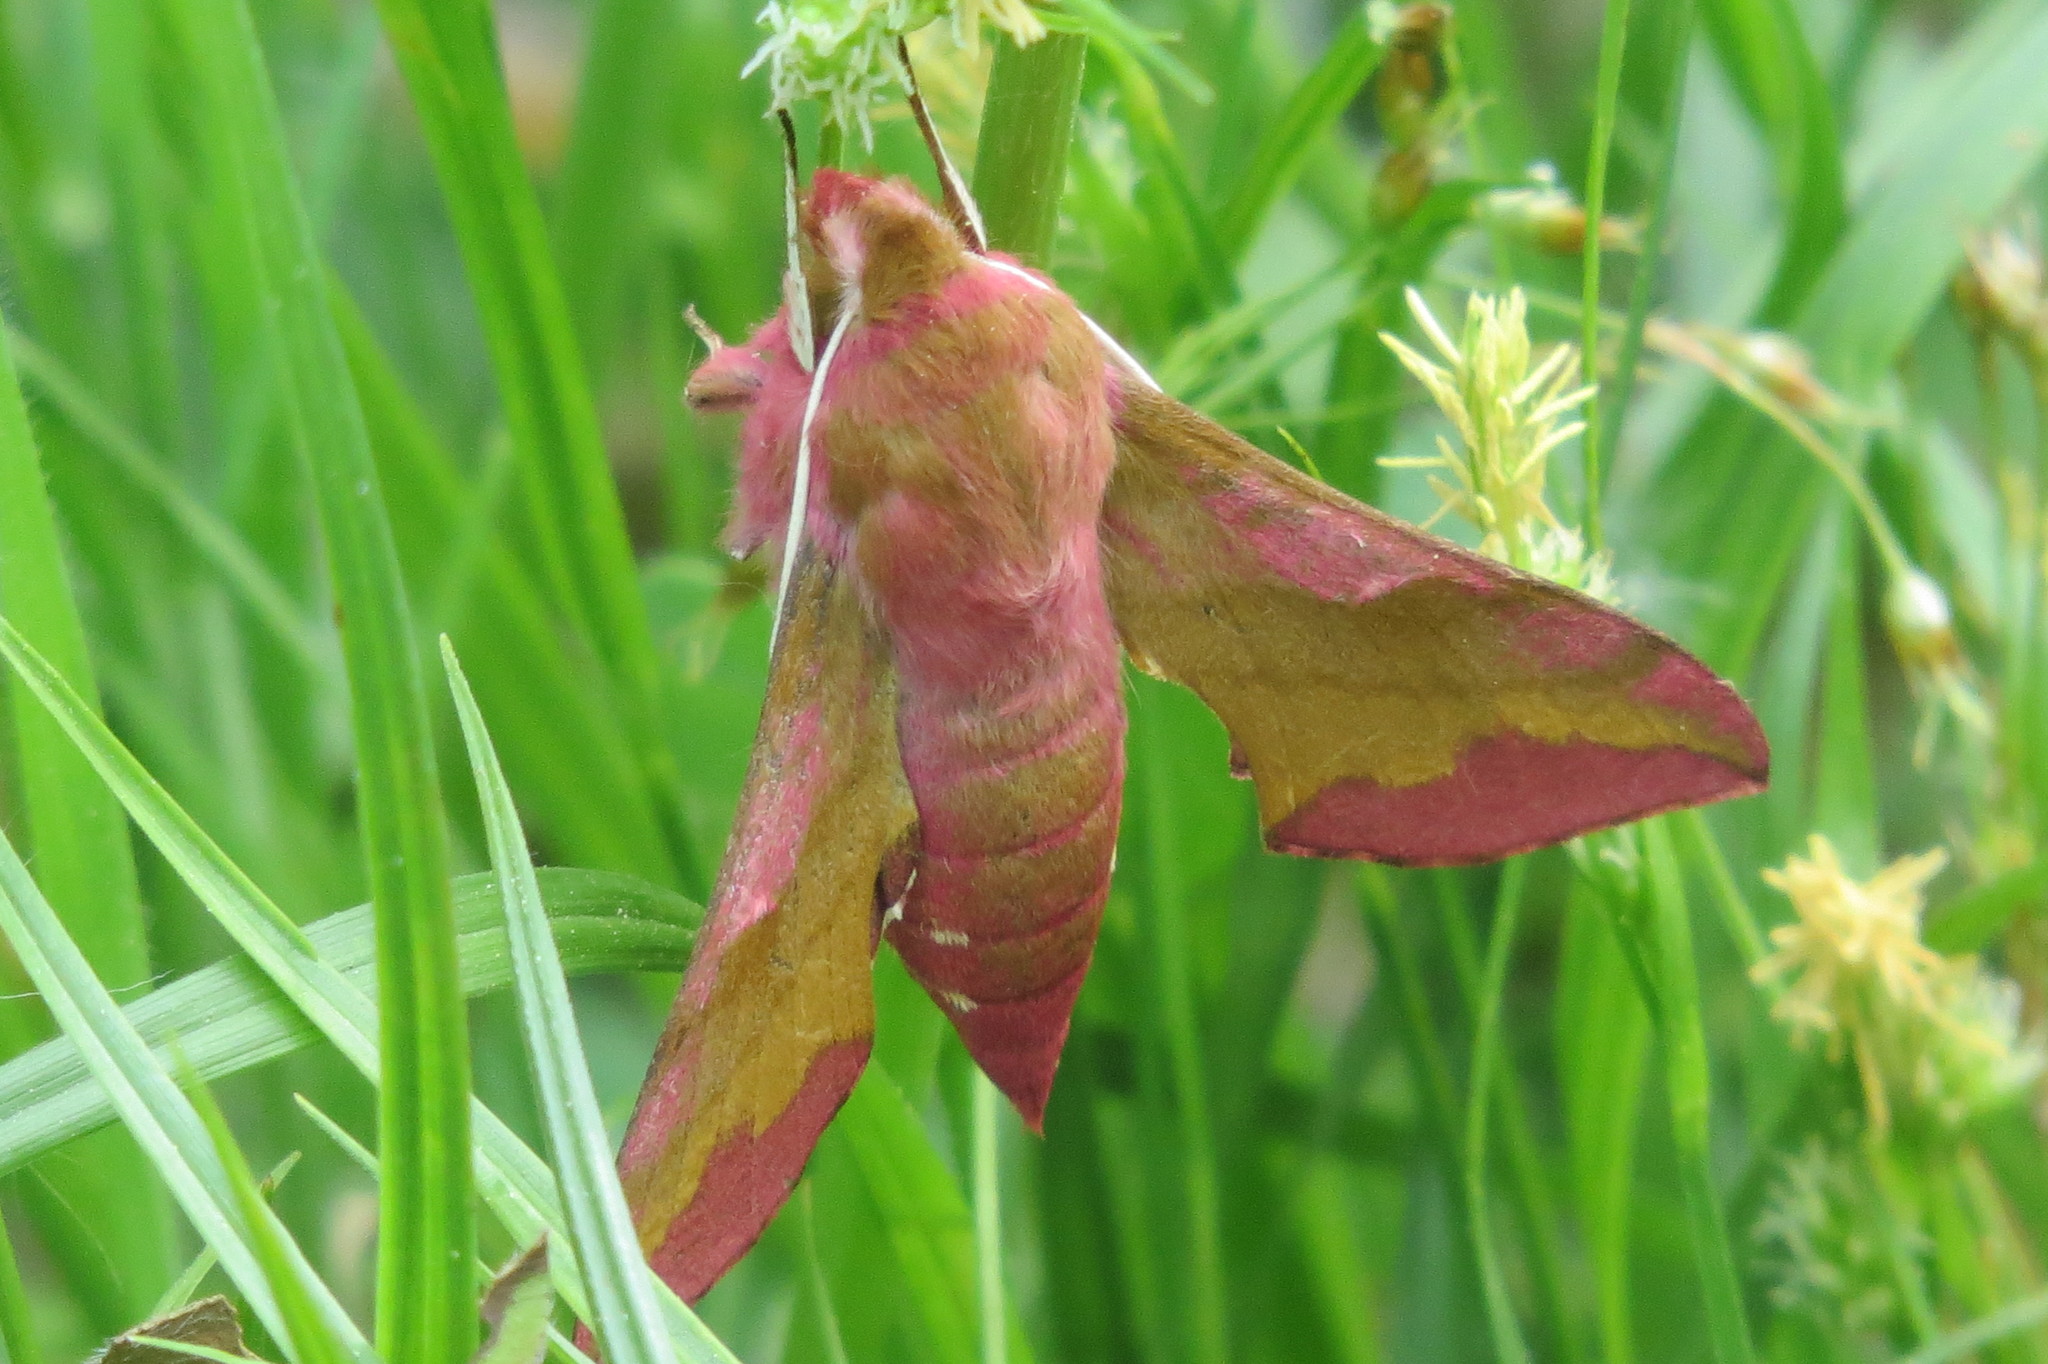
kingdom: Animalia
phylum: Arthropoda
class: Insecta
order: Lepidoptera
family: Sphingidae
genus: Deilephila
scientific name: Deilephila porcellus
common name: Small elephant hawk-moth
